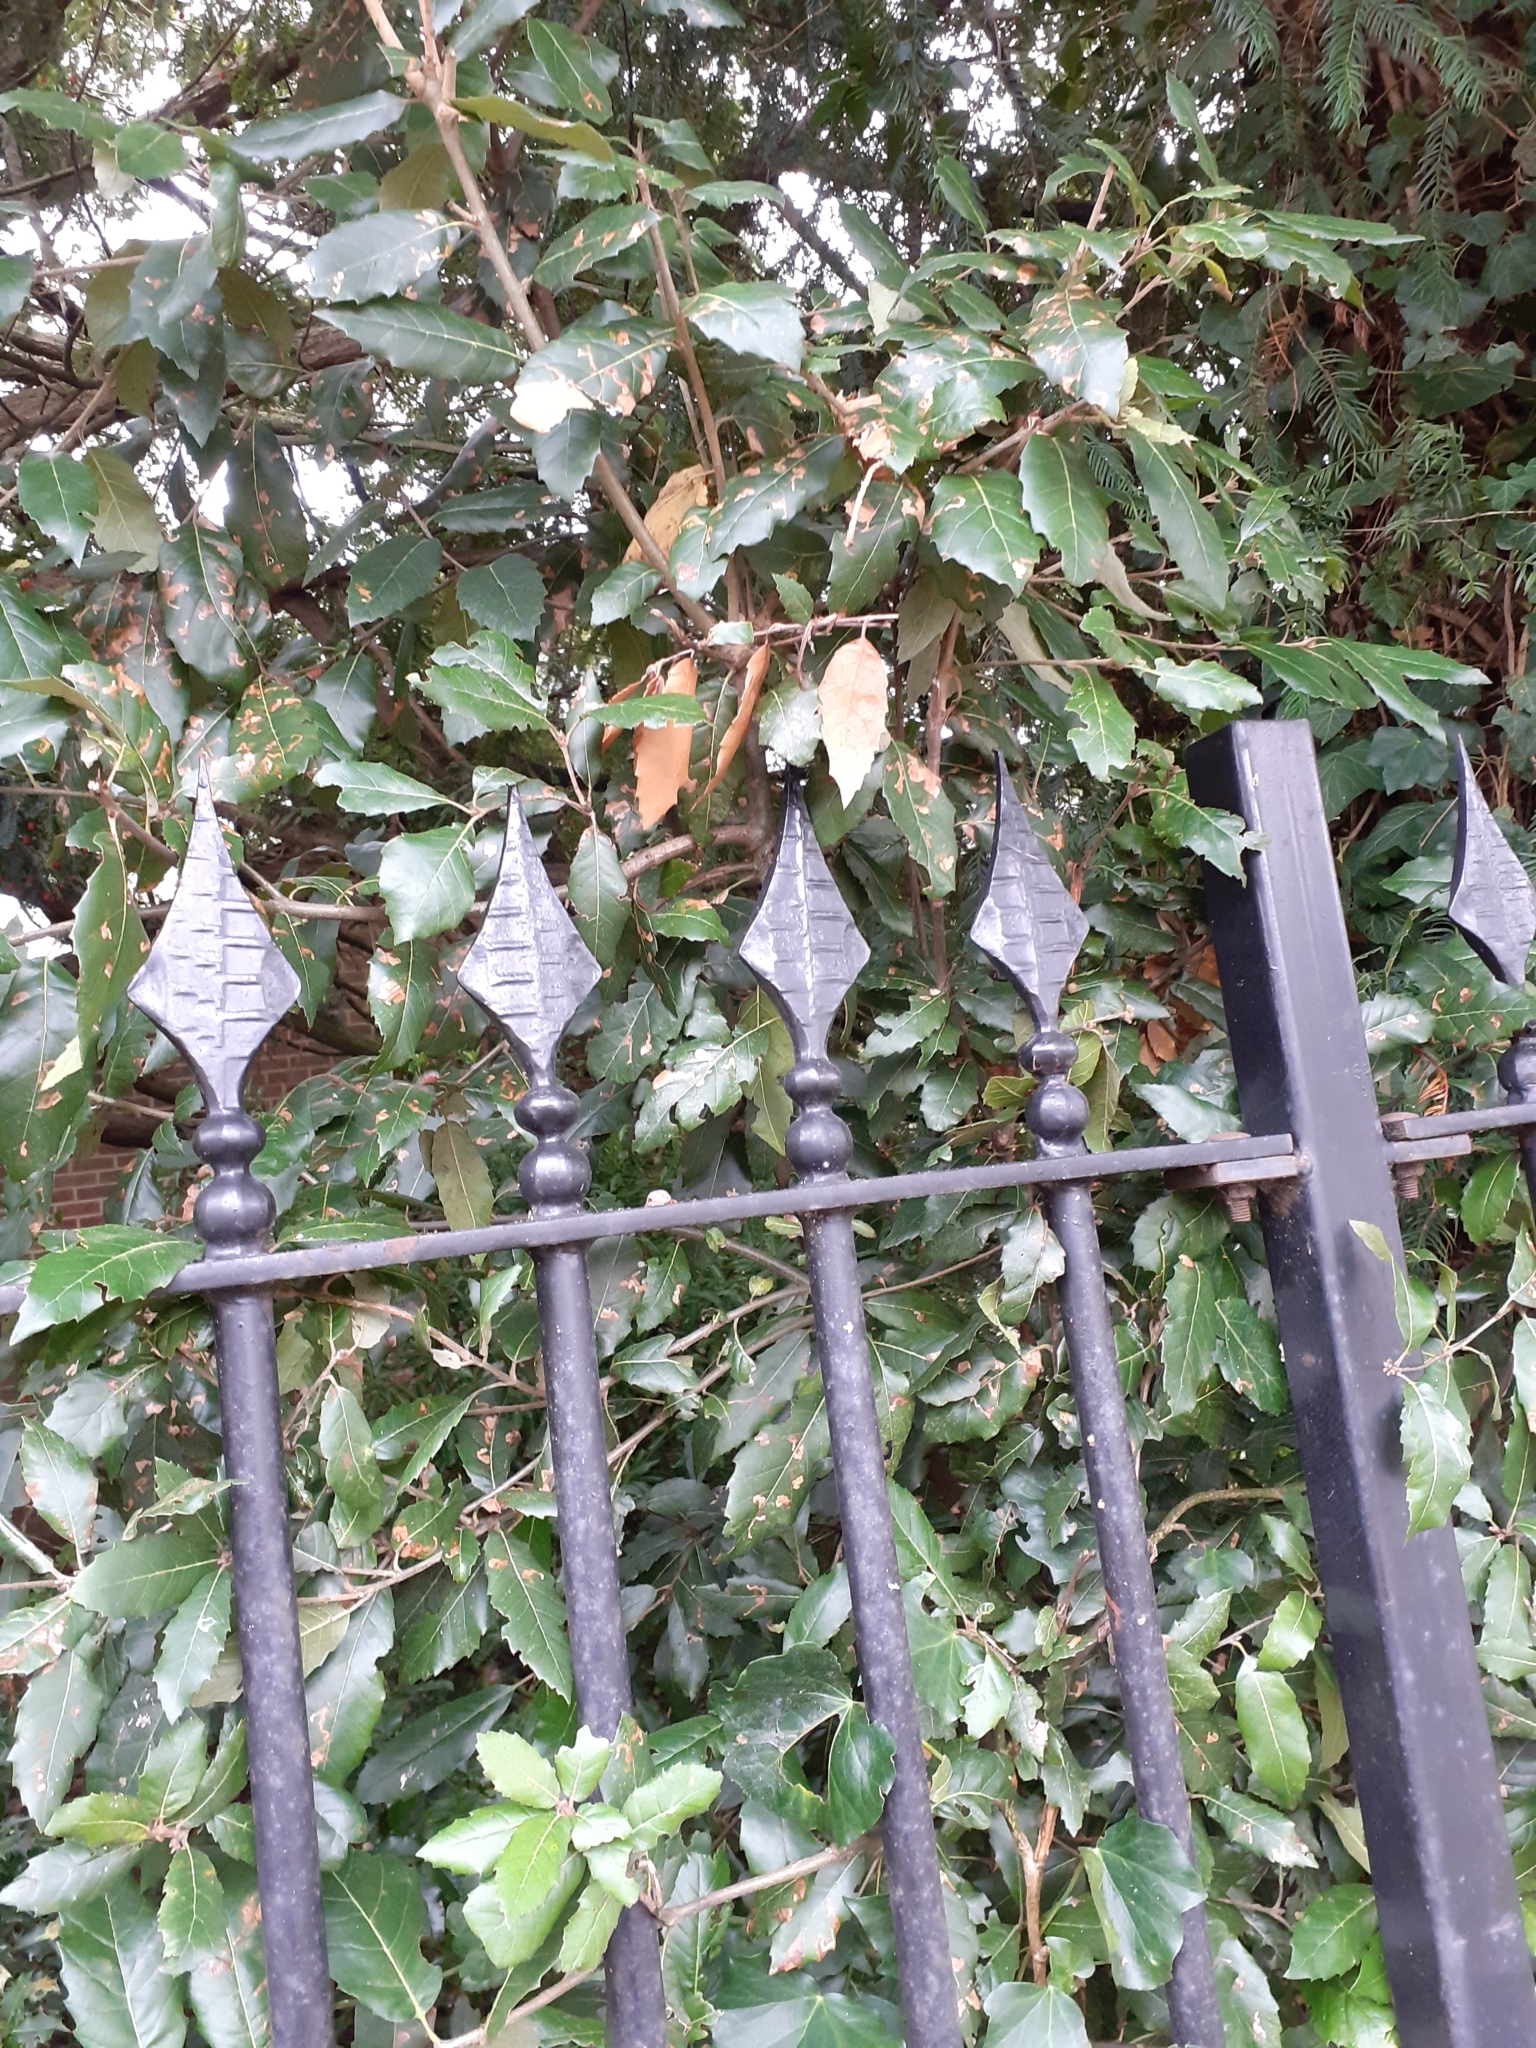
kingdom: Plantae
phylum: Tracheophyta
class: Magnoliopsida
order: Fagales
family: Fagaceae
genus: Quercus
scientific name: Quercus ilex
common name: Evergreen oak
